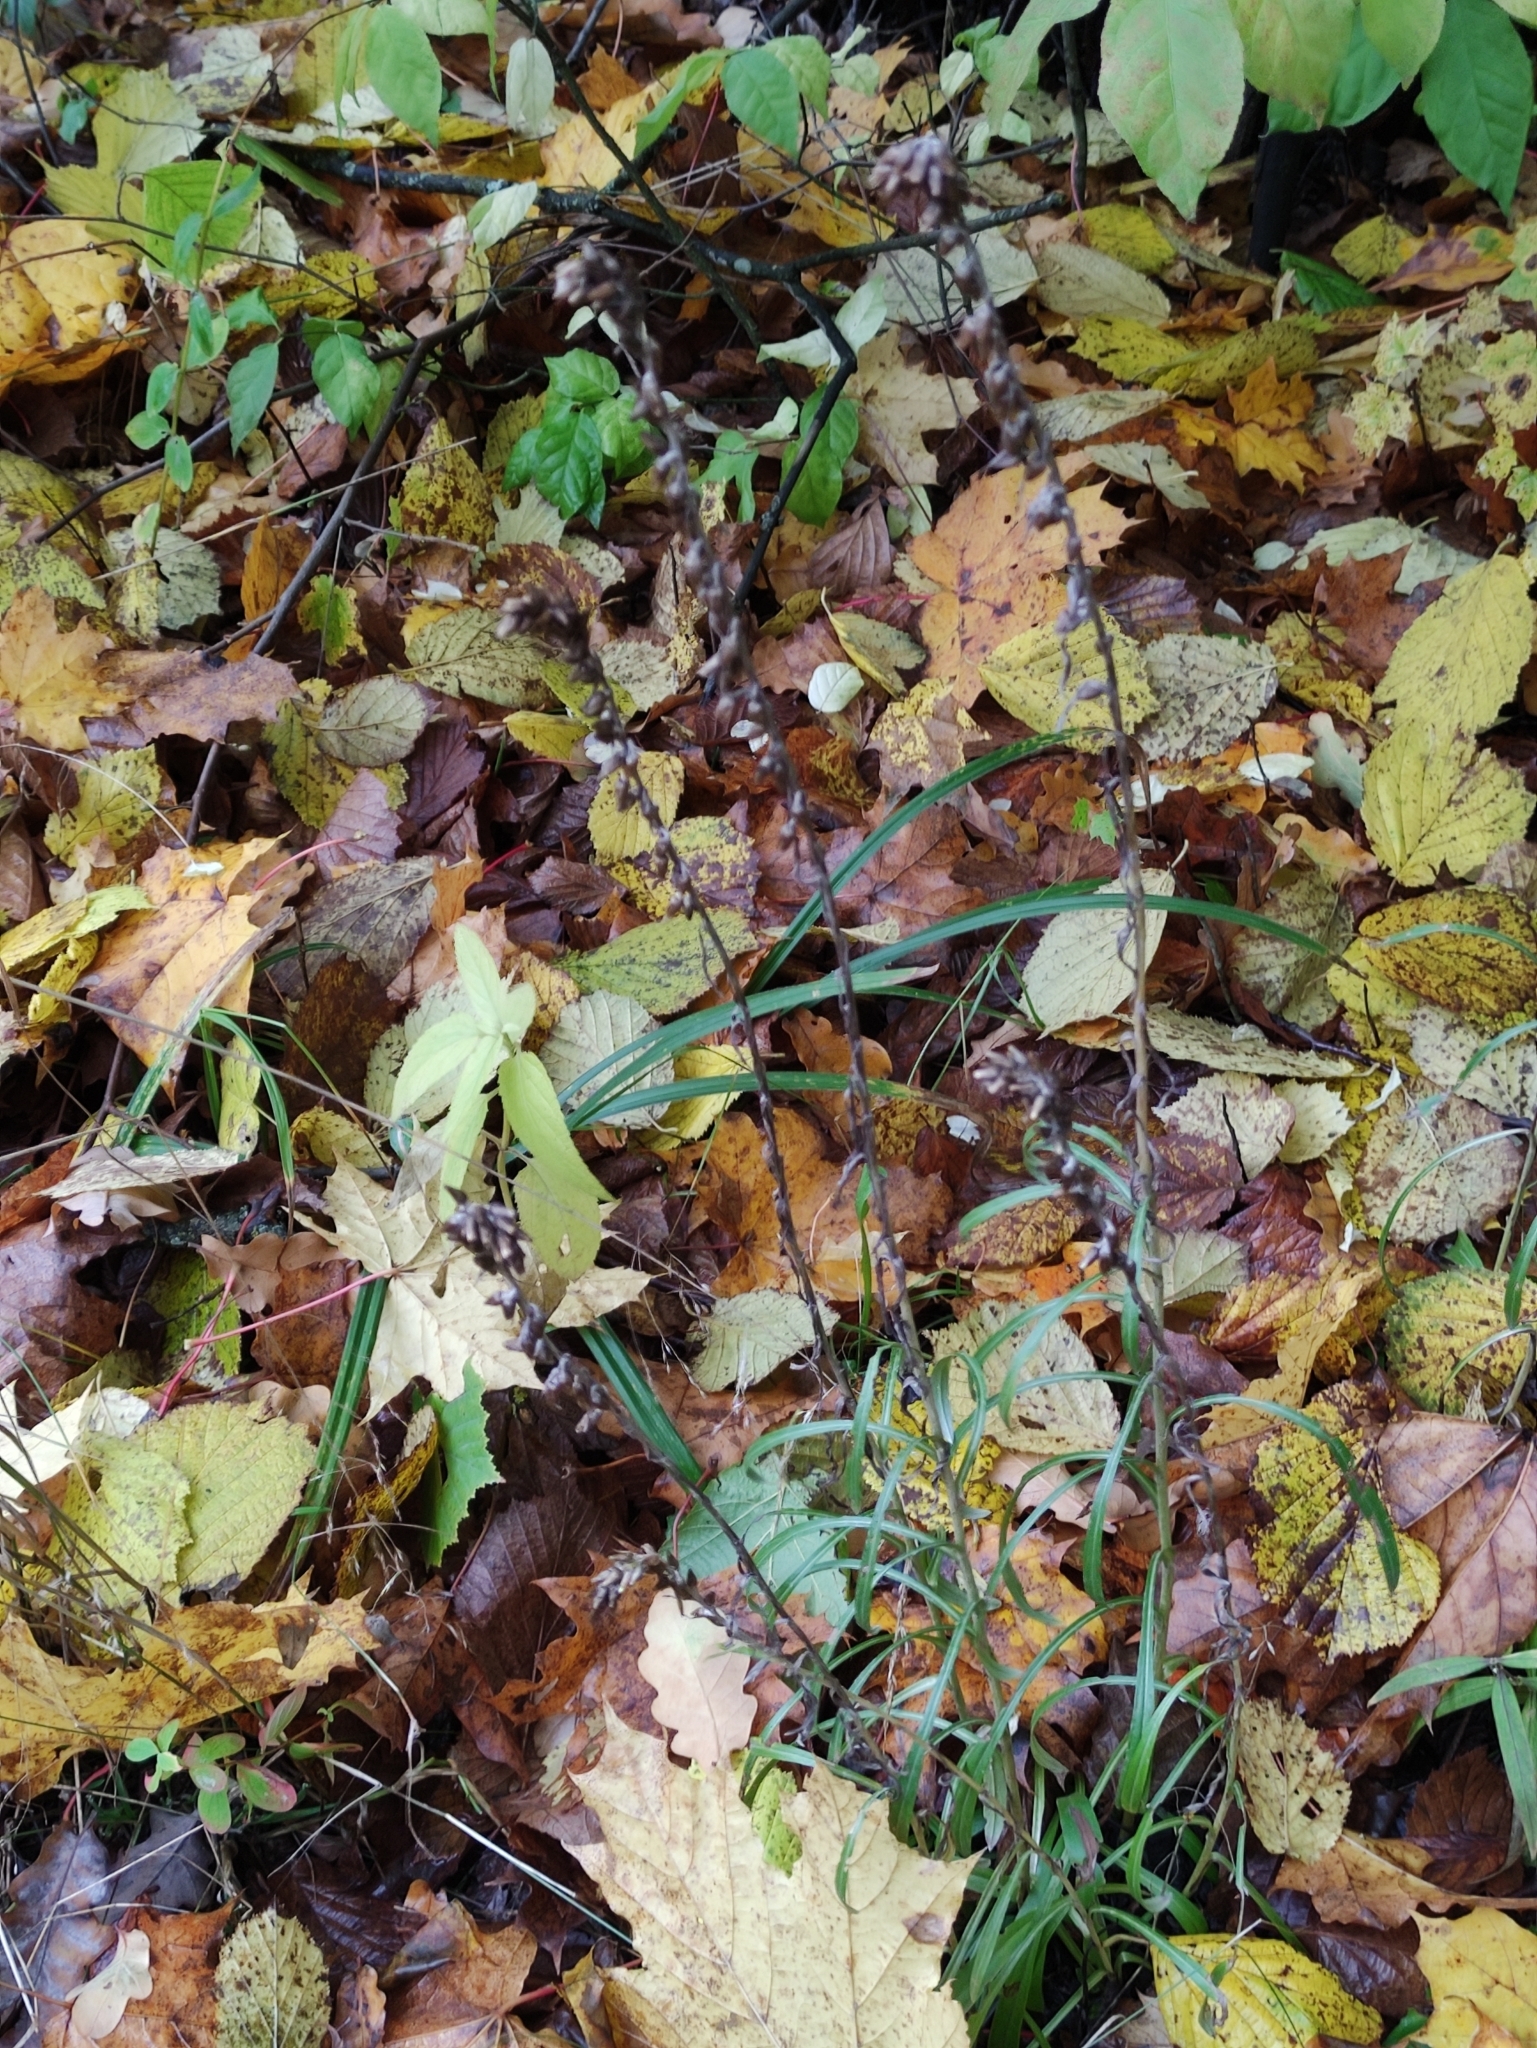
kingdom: Plantae
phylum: Tracheophyta
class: Magnoliopsida
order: Asterales
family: Asteraceae
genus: Omalotheca
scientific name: Omalotheca sylvatica
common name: Heath cudweed
